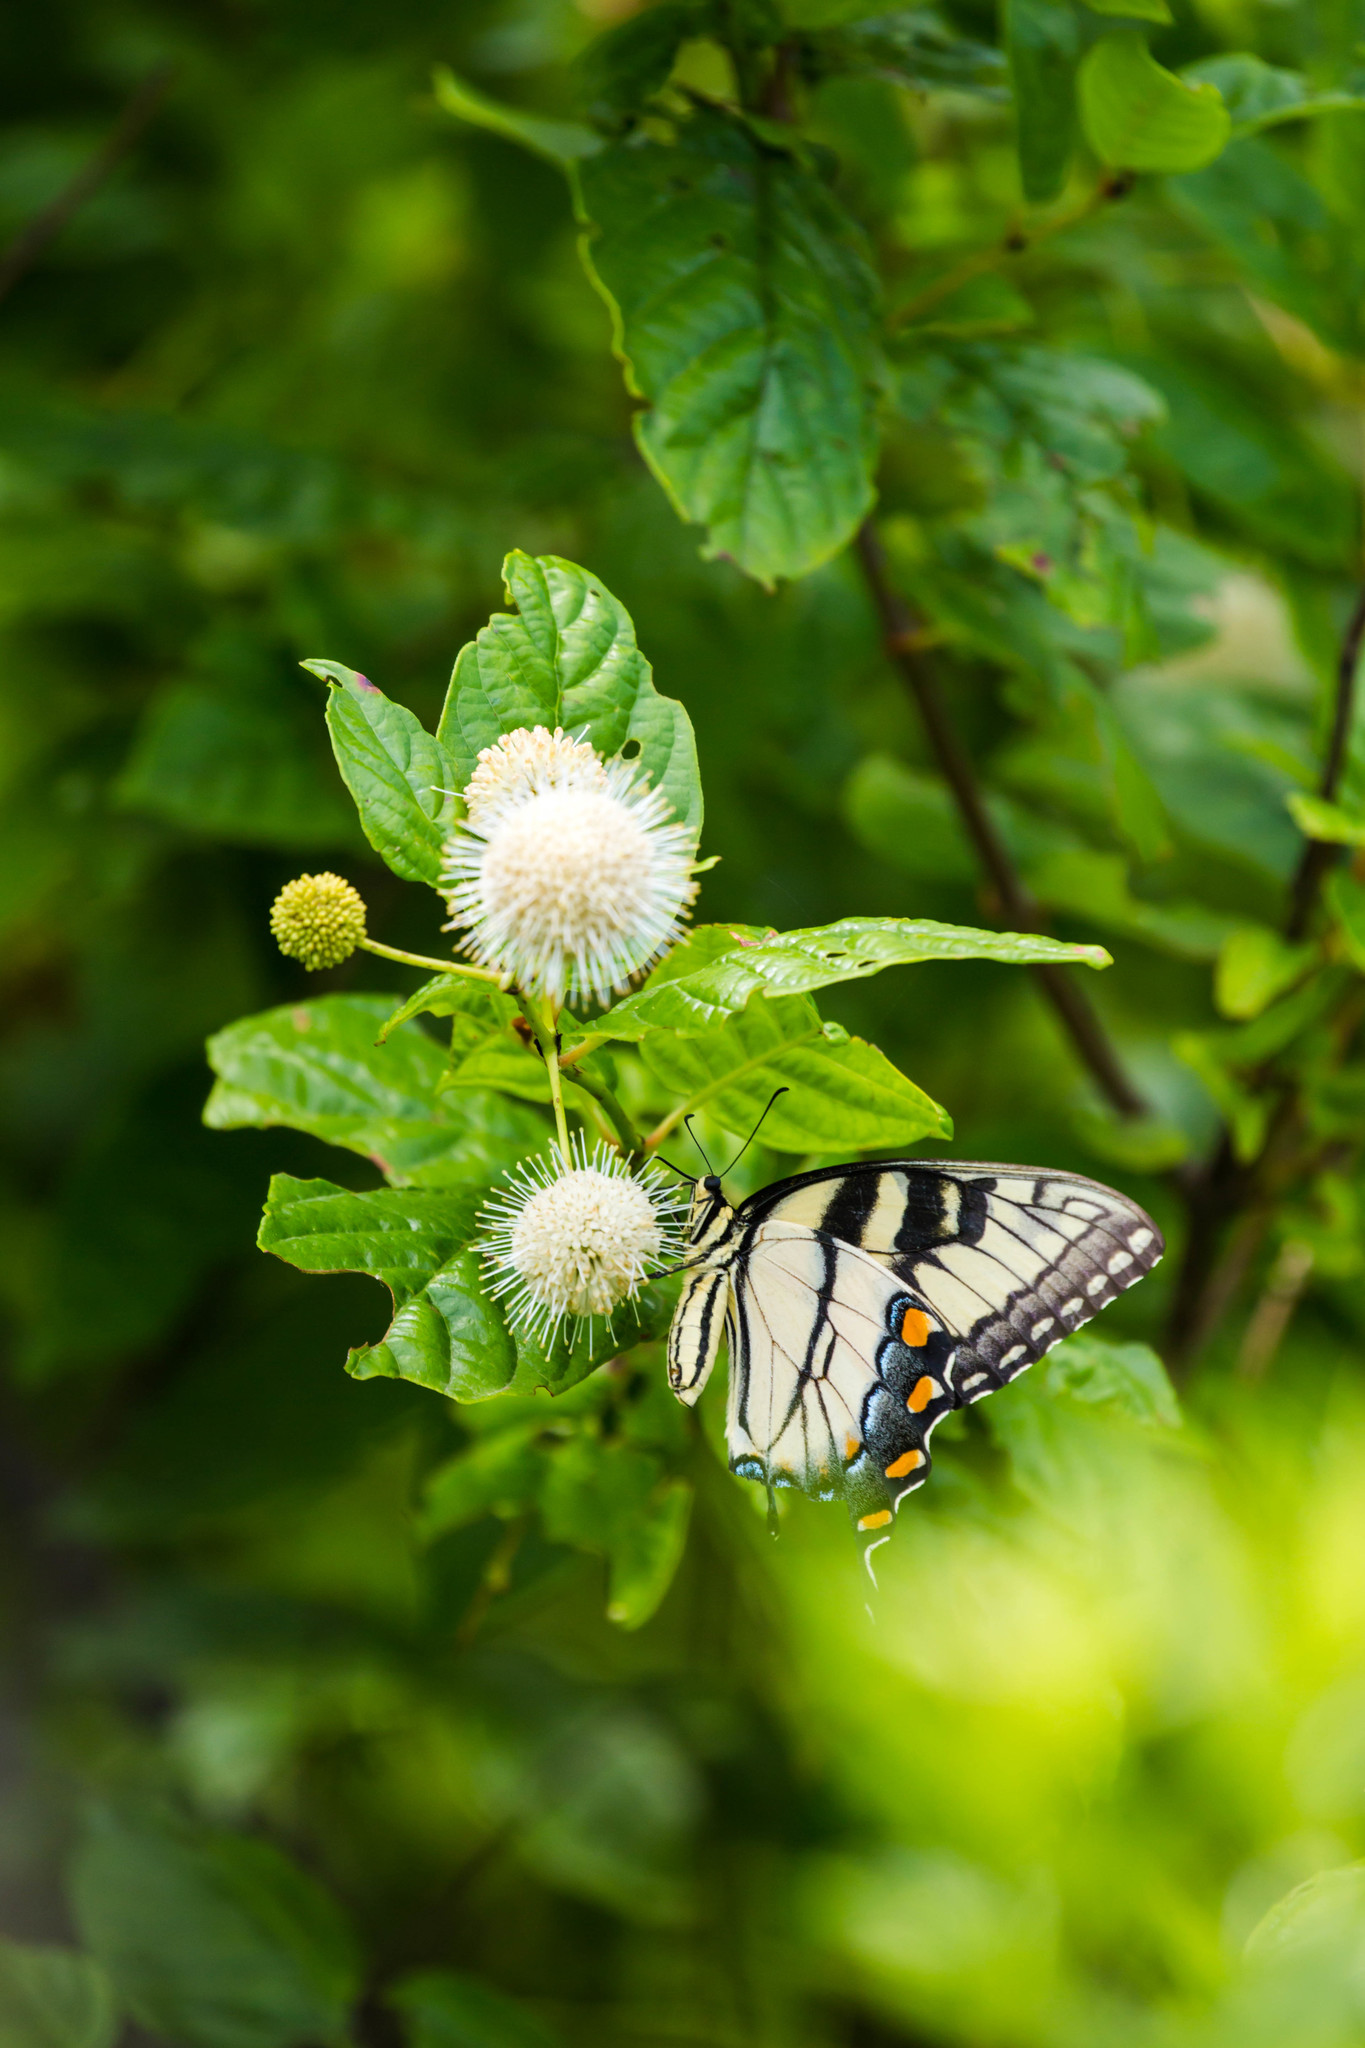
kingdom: Animalia
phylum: Arthropoda
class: Insecta
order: Lepidoptera
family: Papilionidae
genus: Papilio
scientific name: Papilio glaucus
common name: Tiger swallowtail
